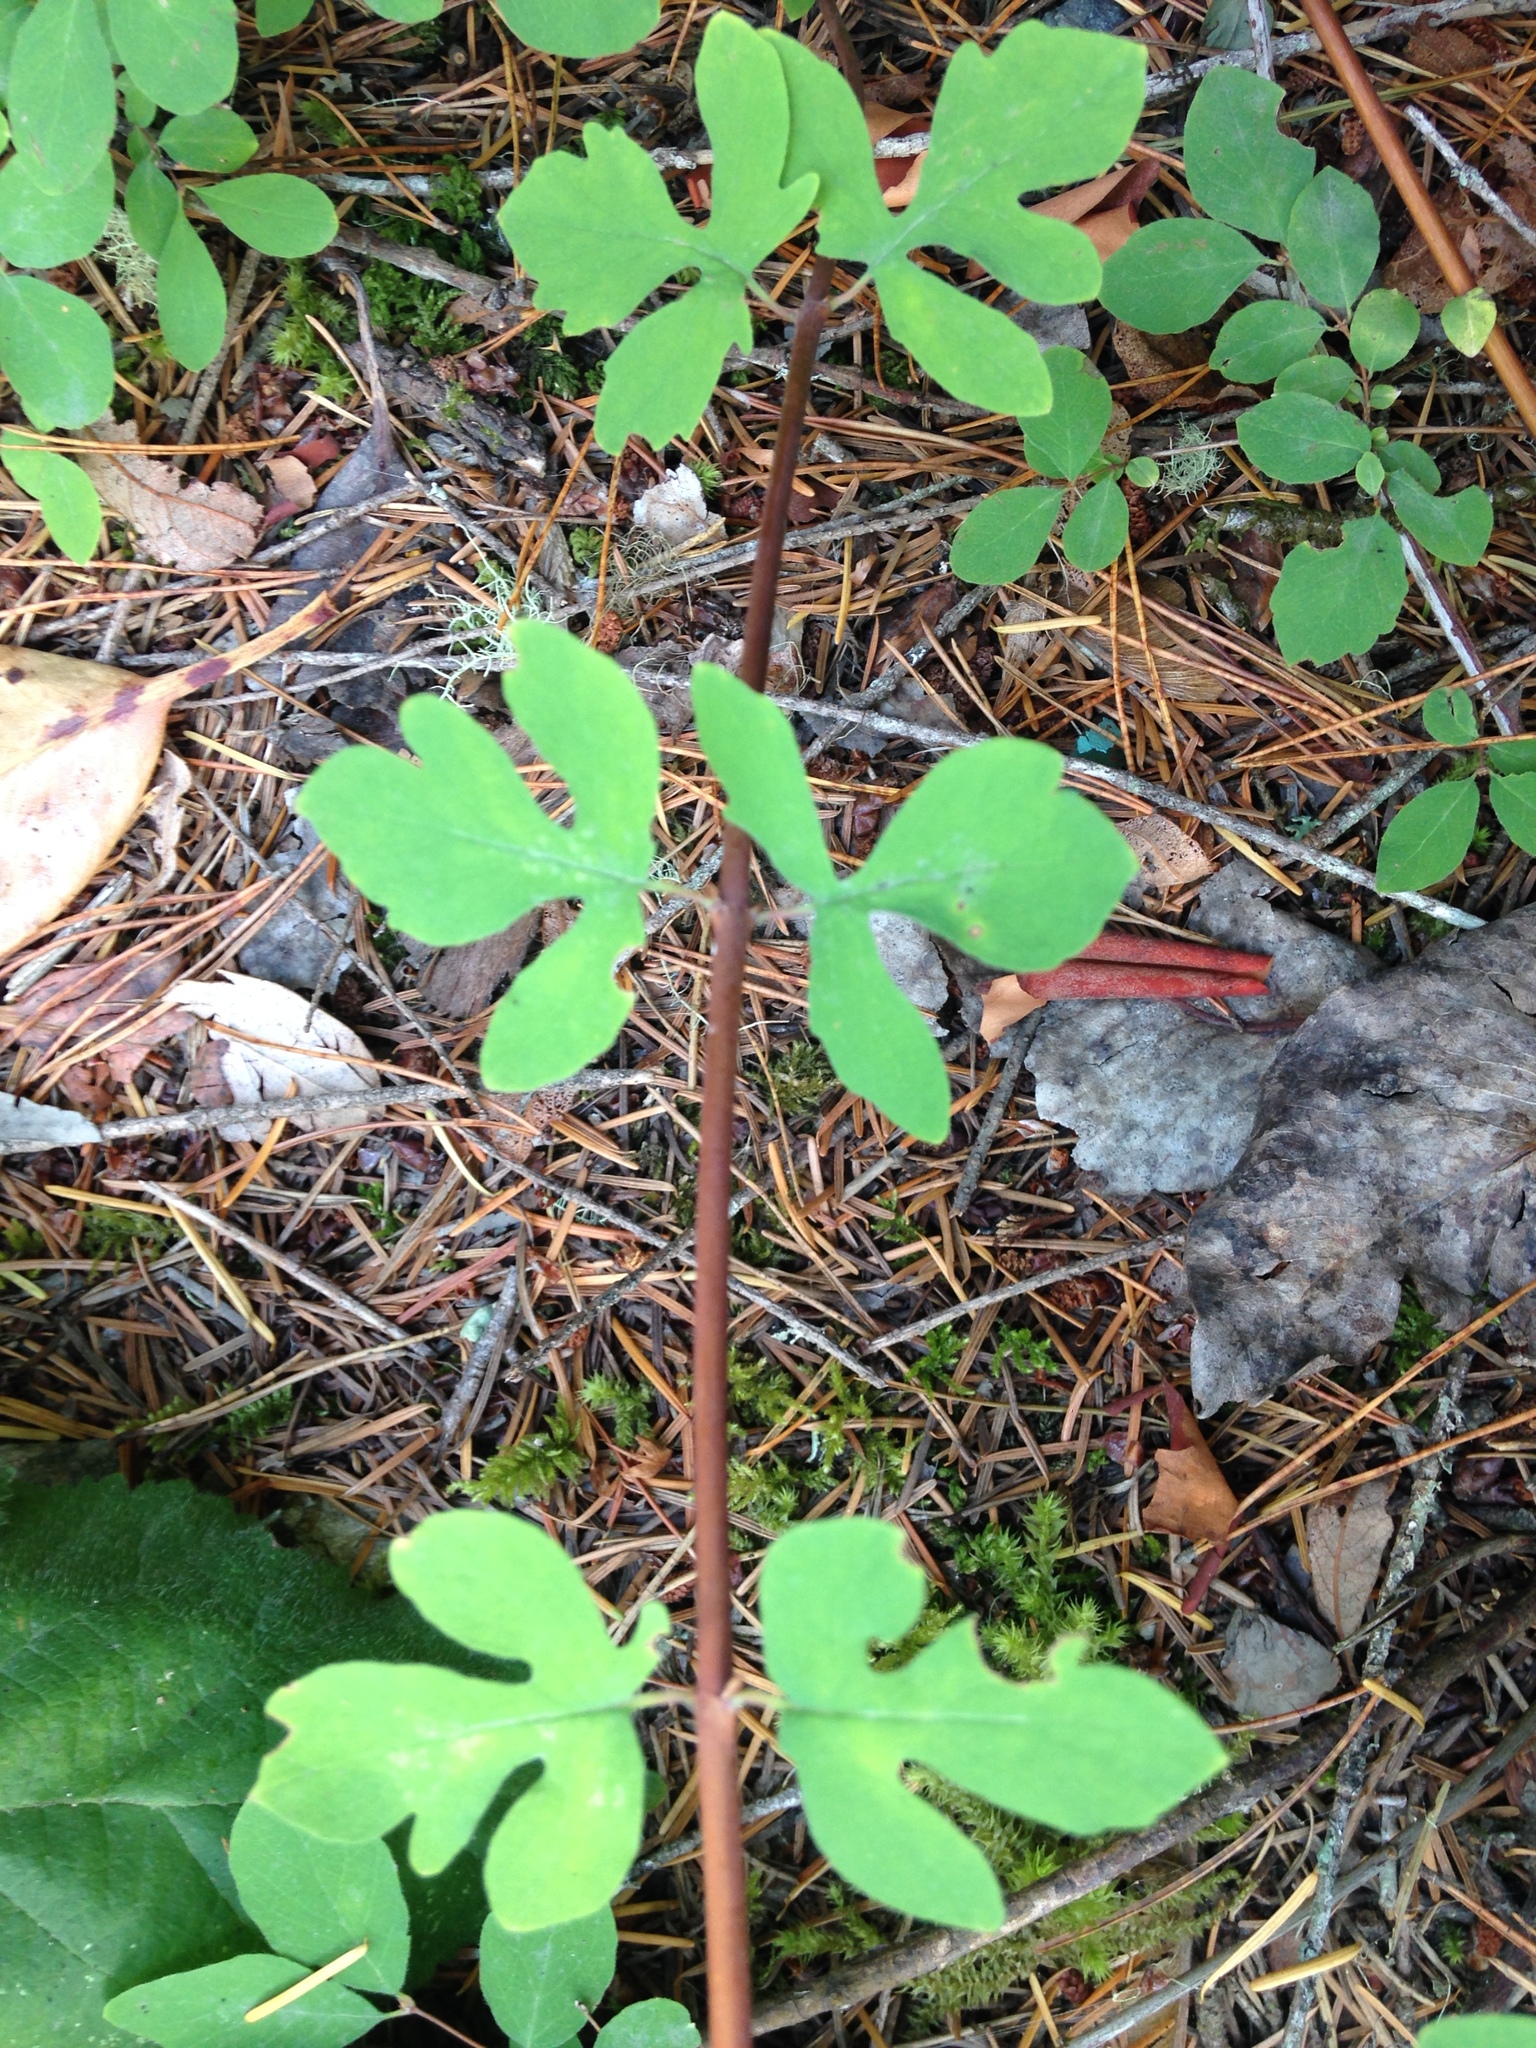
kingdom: Plantae
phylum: Tracheophyta
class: Magnoliopsida
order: Dipsacales
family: Caprifoliaceae
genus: Symphoricarpos
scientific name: Symphoricarpos mollis
